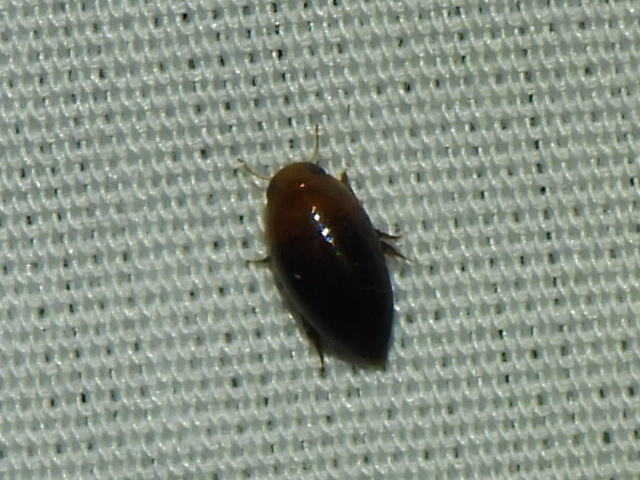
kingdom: Animalia
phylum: Arthropoda
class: Insecta
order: Coleoptera
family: Noteridae
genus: Hydrocanthus
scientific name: Hydrocanthus
